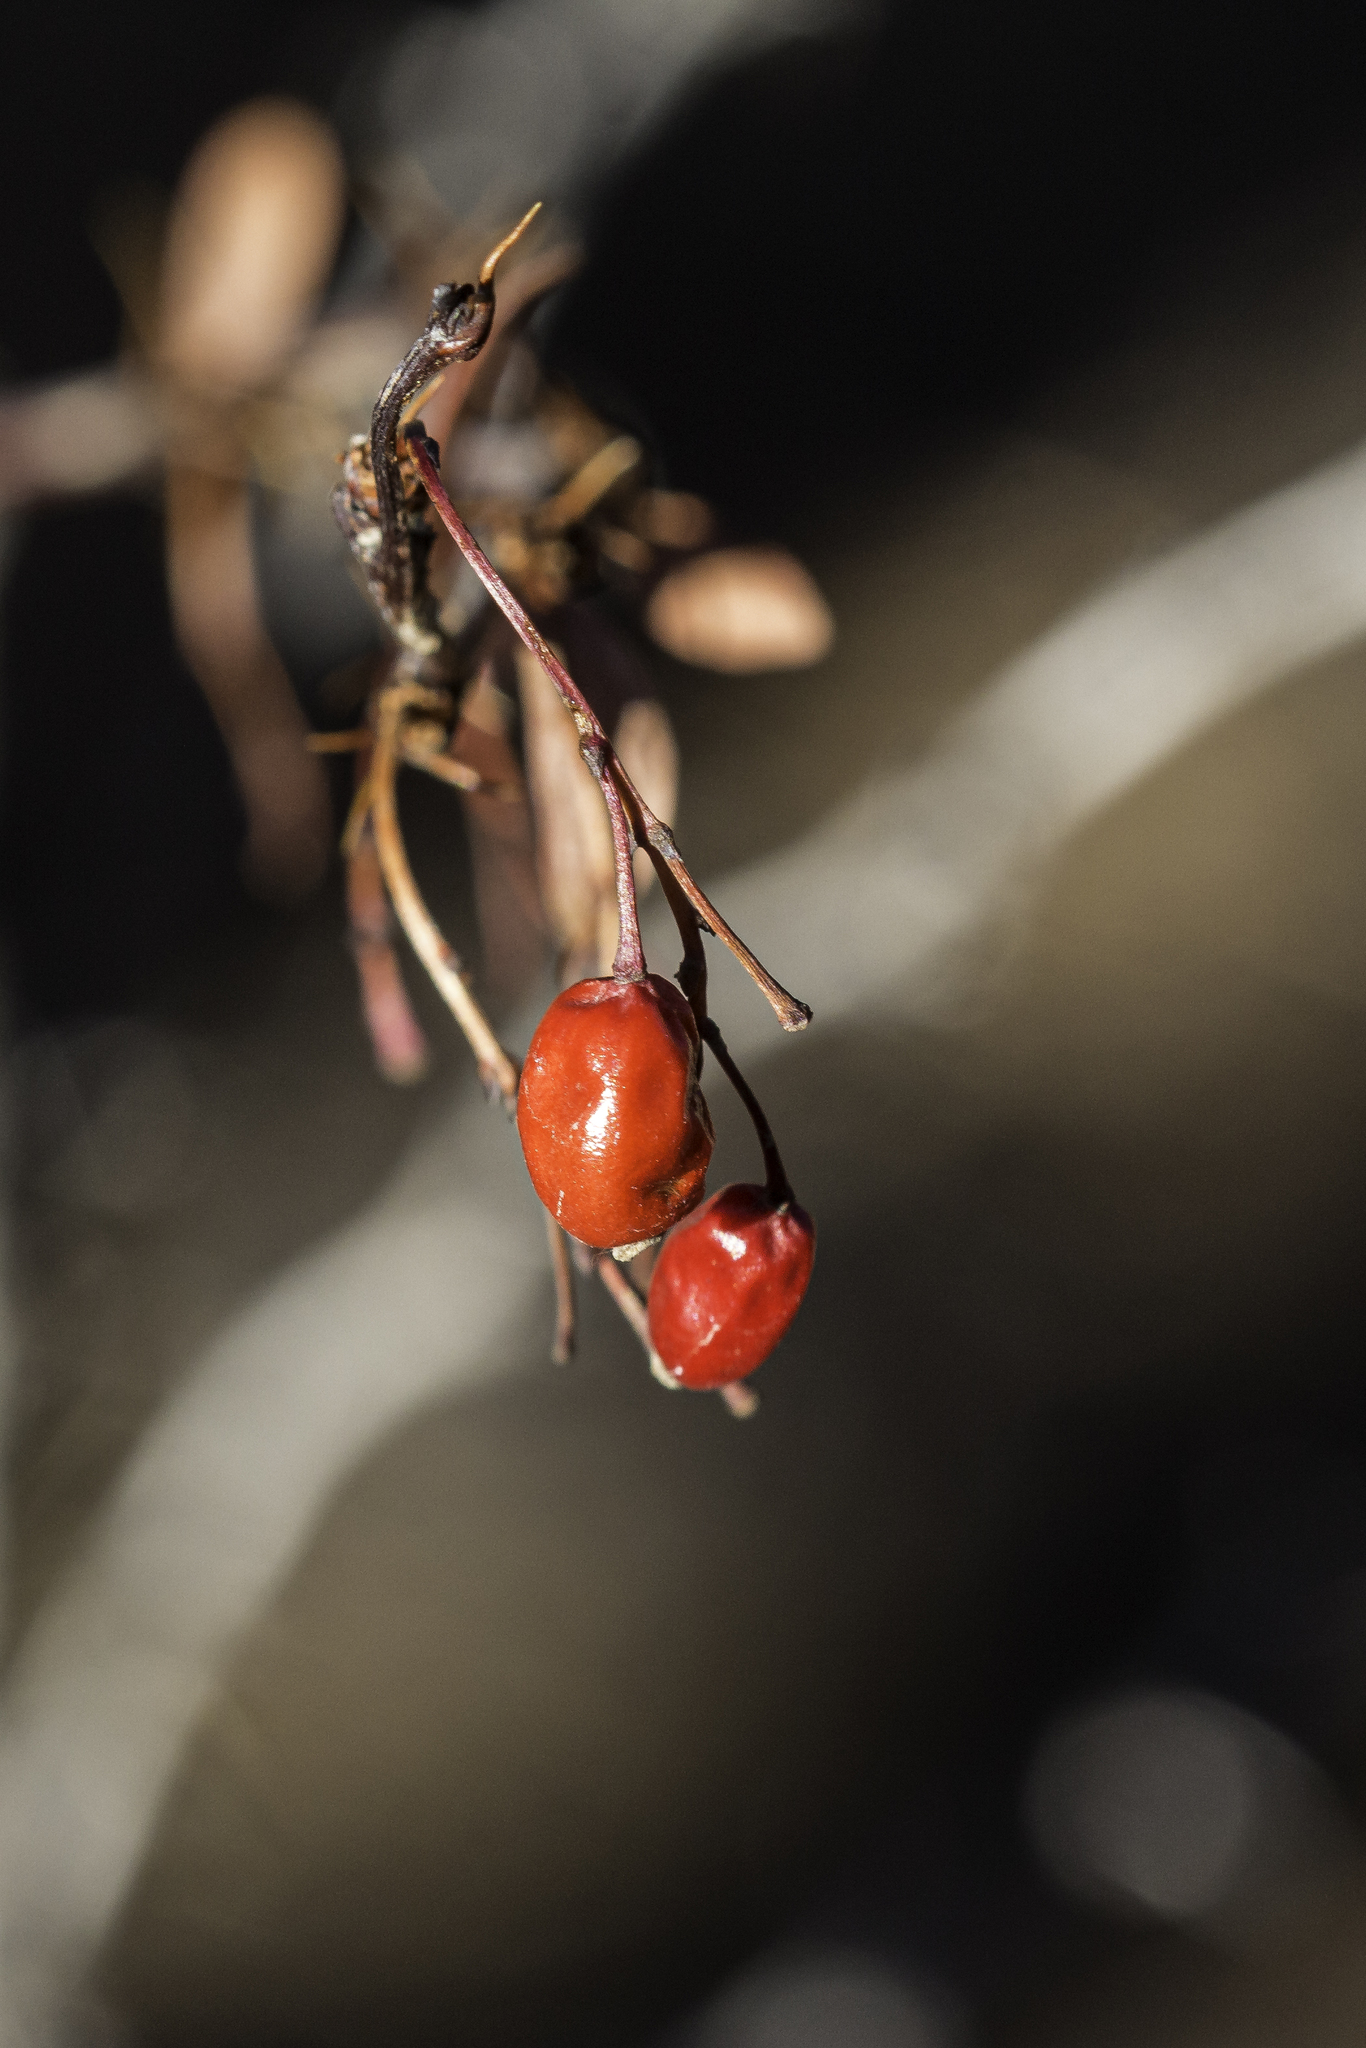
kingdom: Plantae
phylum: Tracheophyta
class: Magnoliopsida
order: Ranunculales
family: Berberidaceae
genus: Berberis
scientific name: Berberis fendleri
